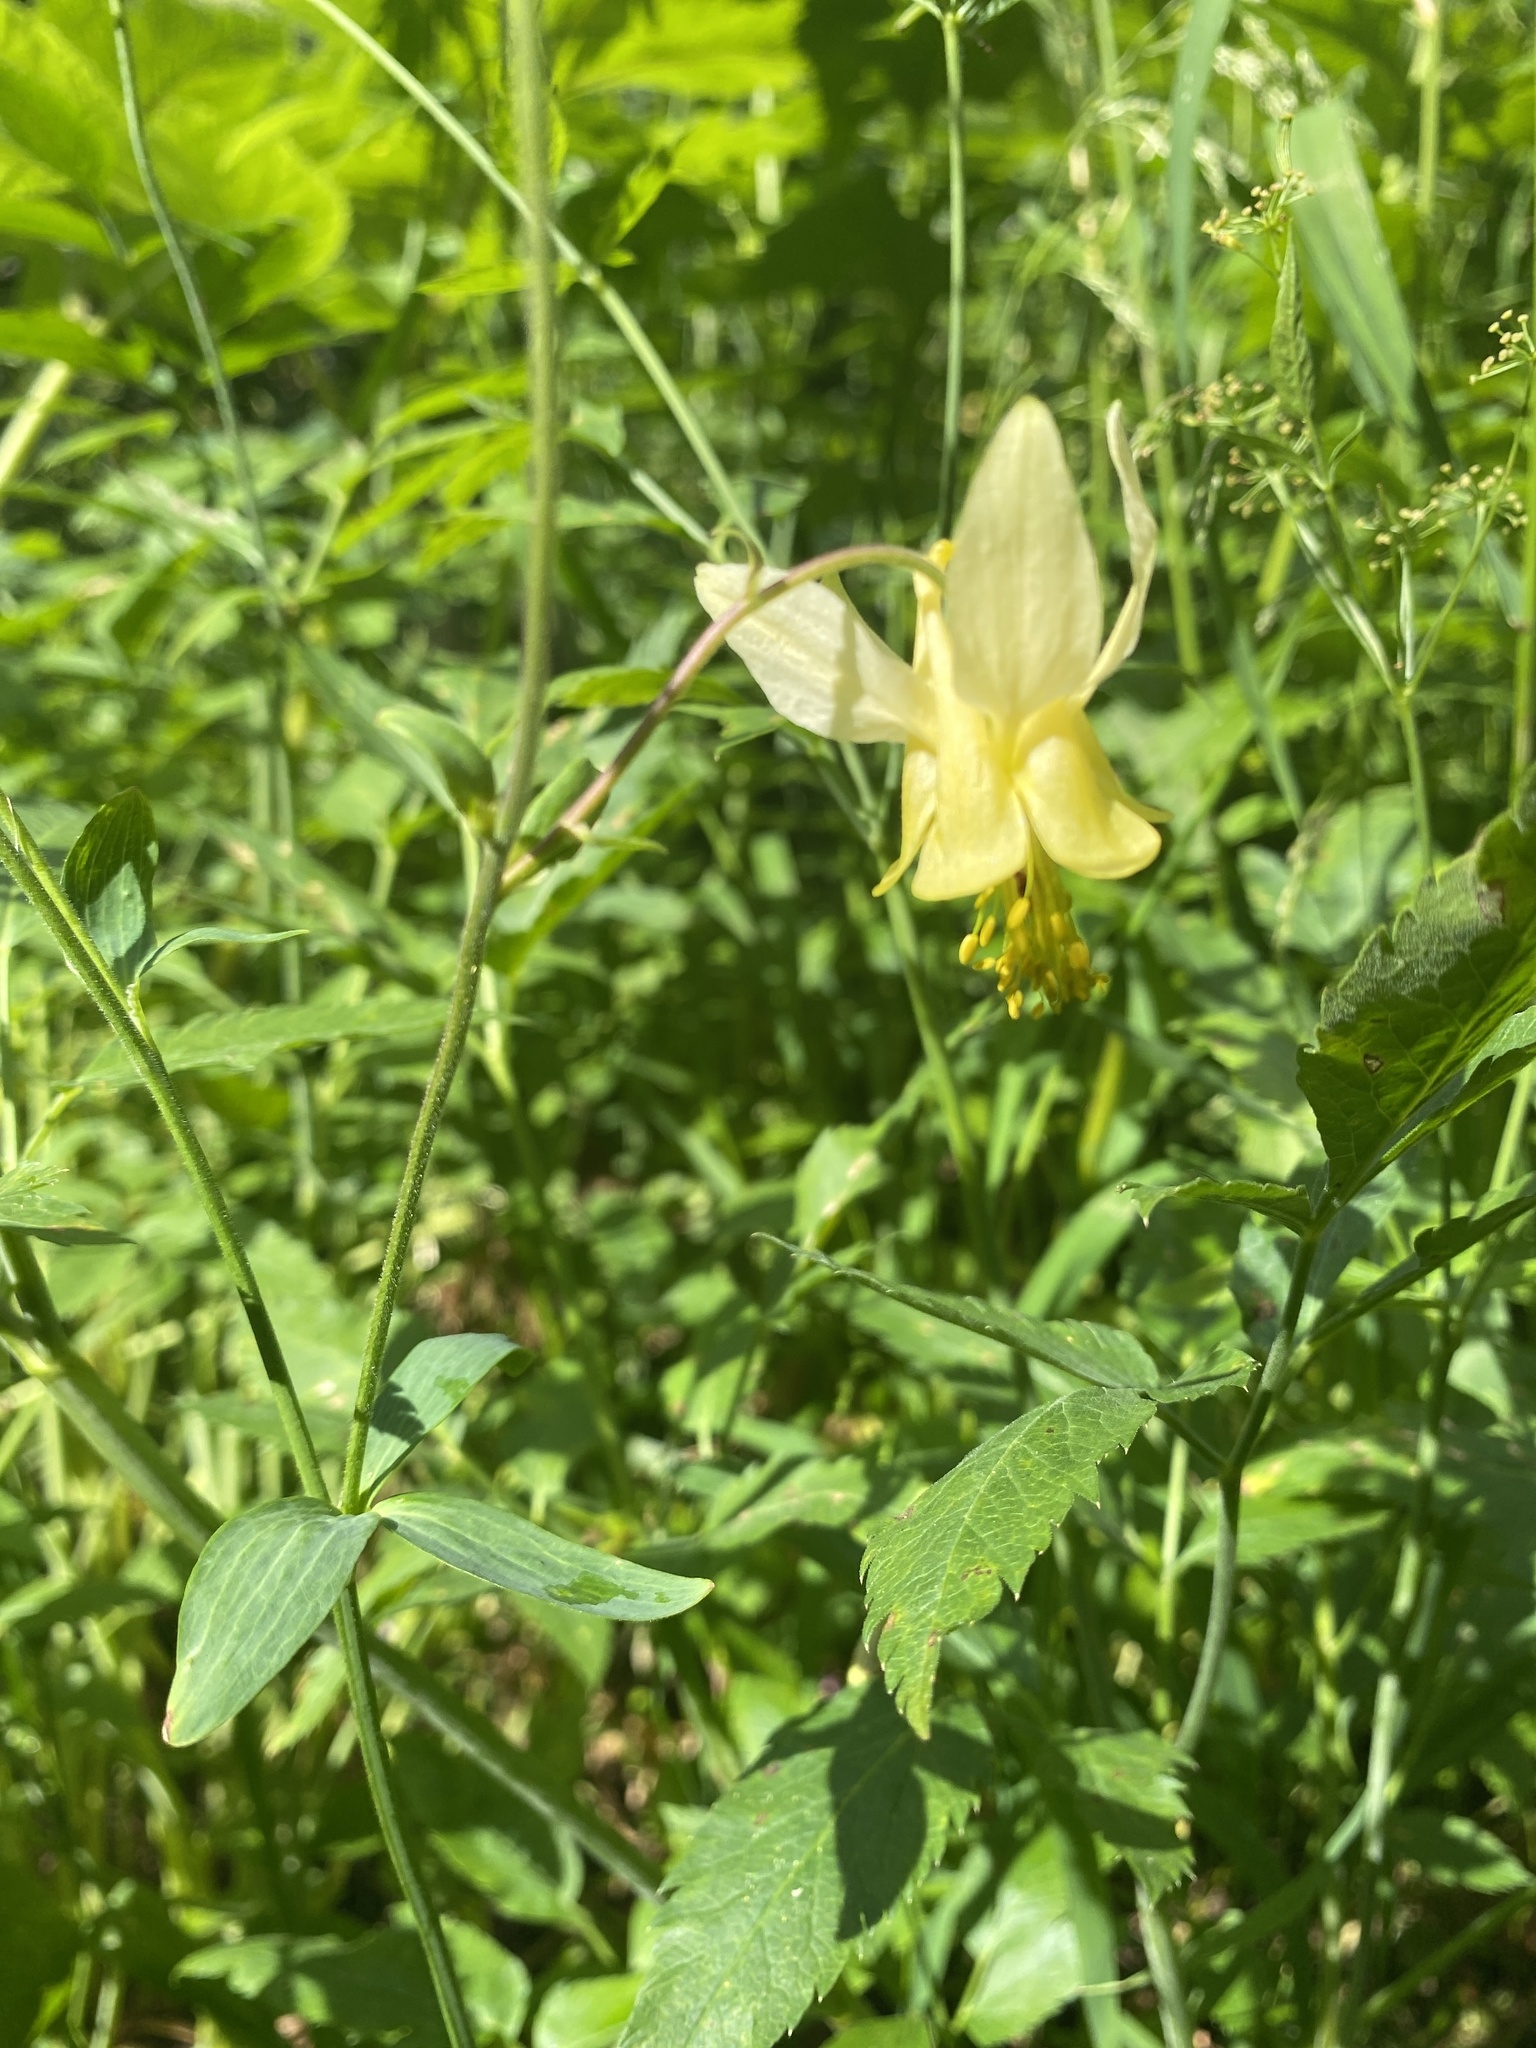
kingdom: Plantae
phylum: Tracheophyta
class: Magnoliopsida
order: Ranunculales
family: Ranunculaceae
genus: Aquilegia
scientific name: Aquilegia flavescens
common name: Yellow columbine
